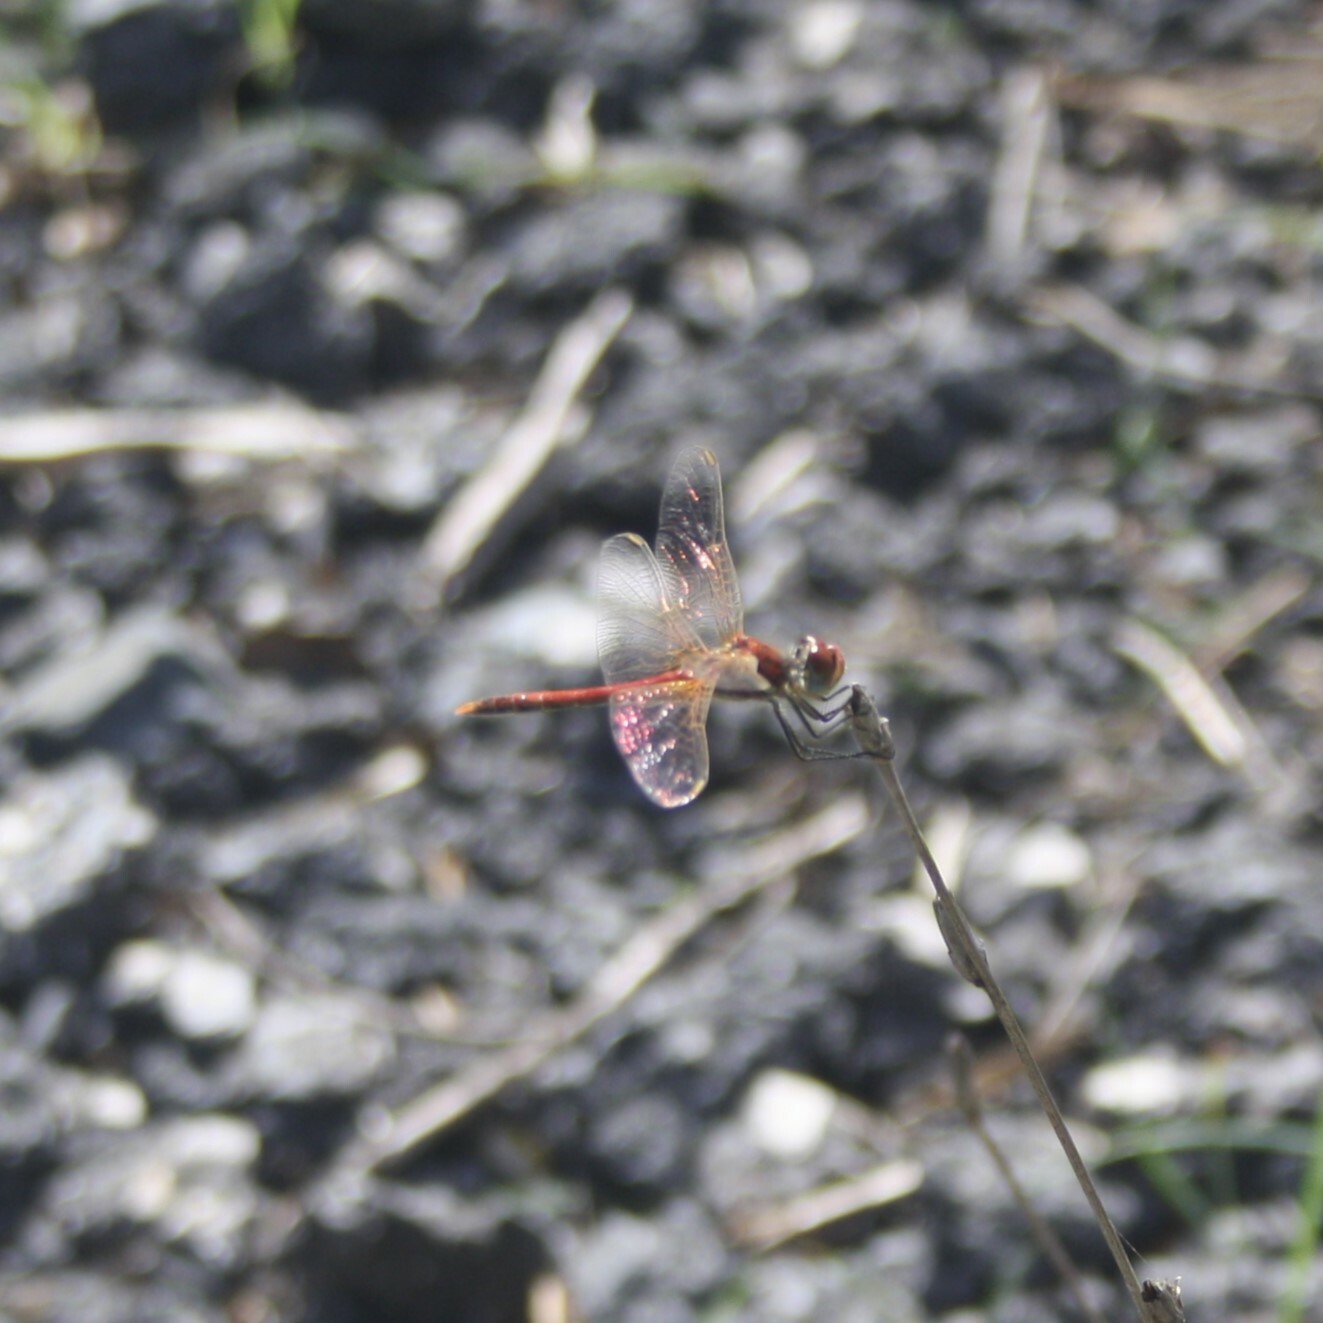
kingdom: Animalia
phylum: Arthropoda
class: Insecta
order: Odonata
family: Libellulidae
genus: Sympetrum
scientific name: Sympetrum fonscolombii
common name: Red-veined darter
